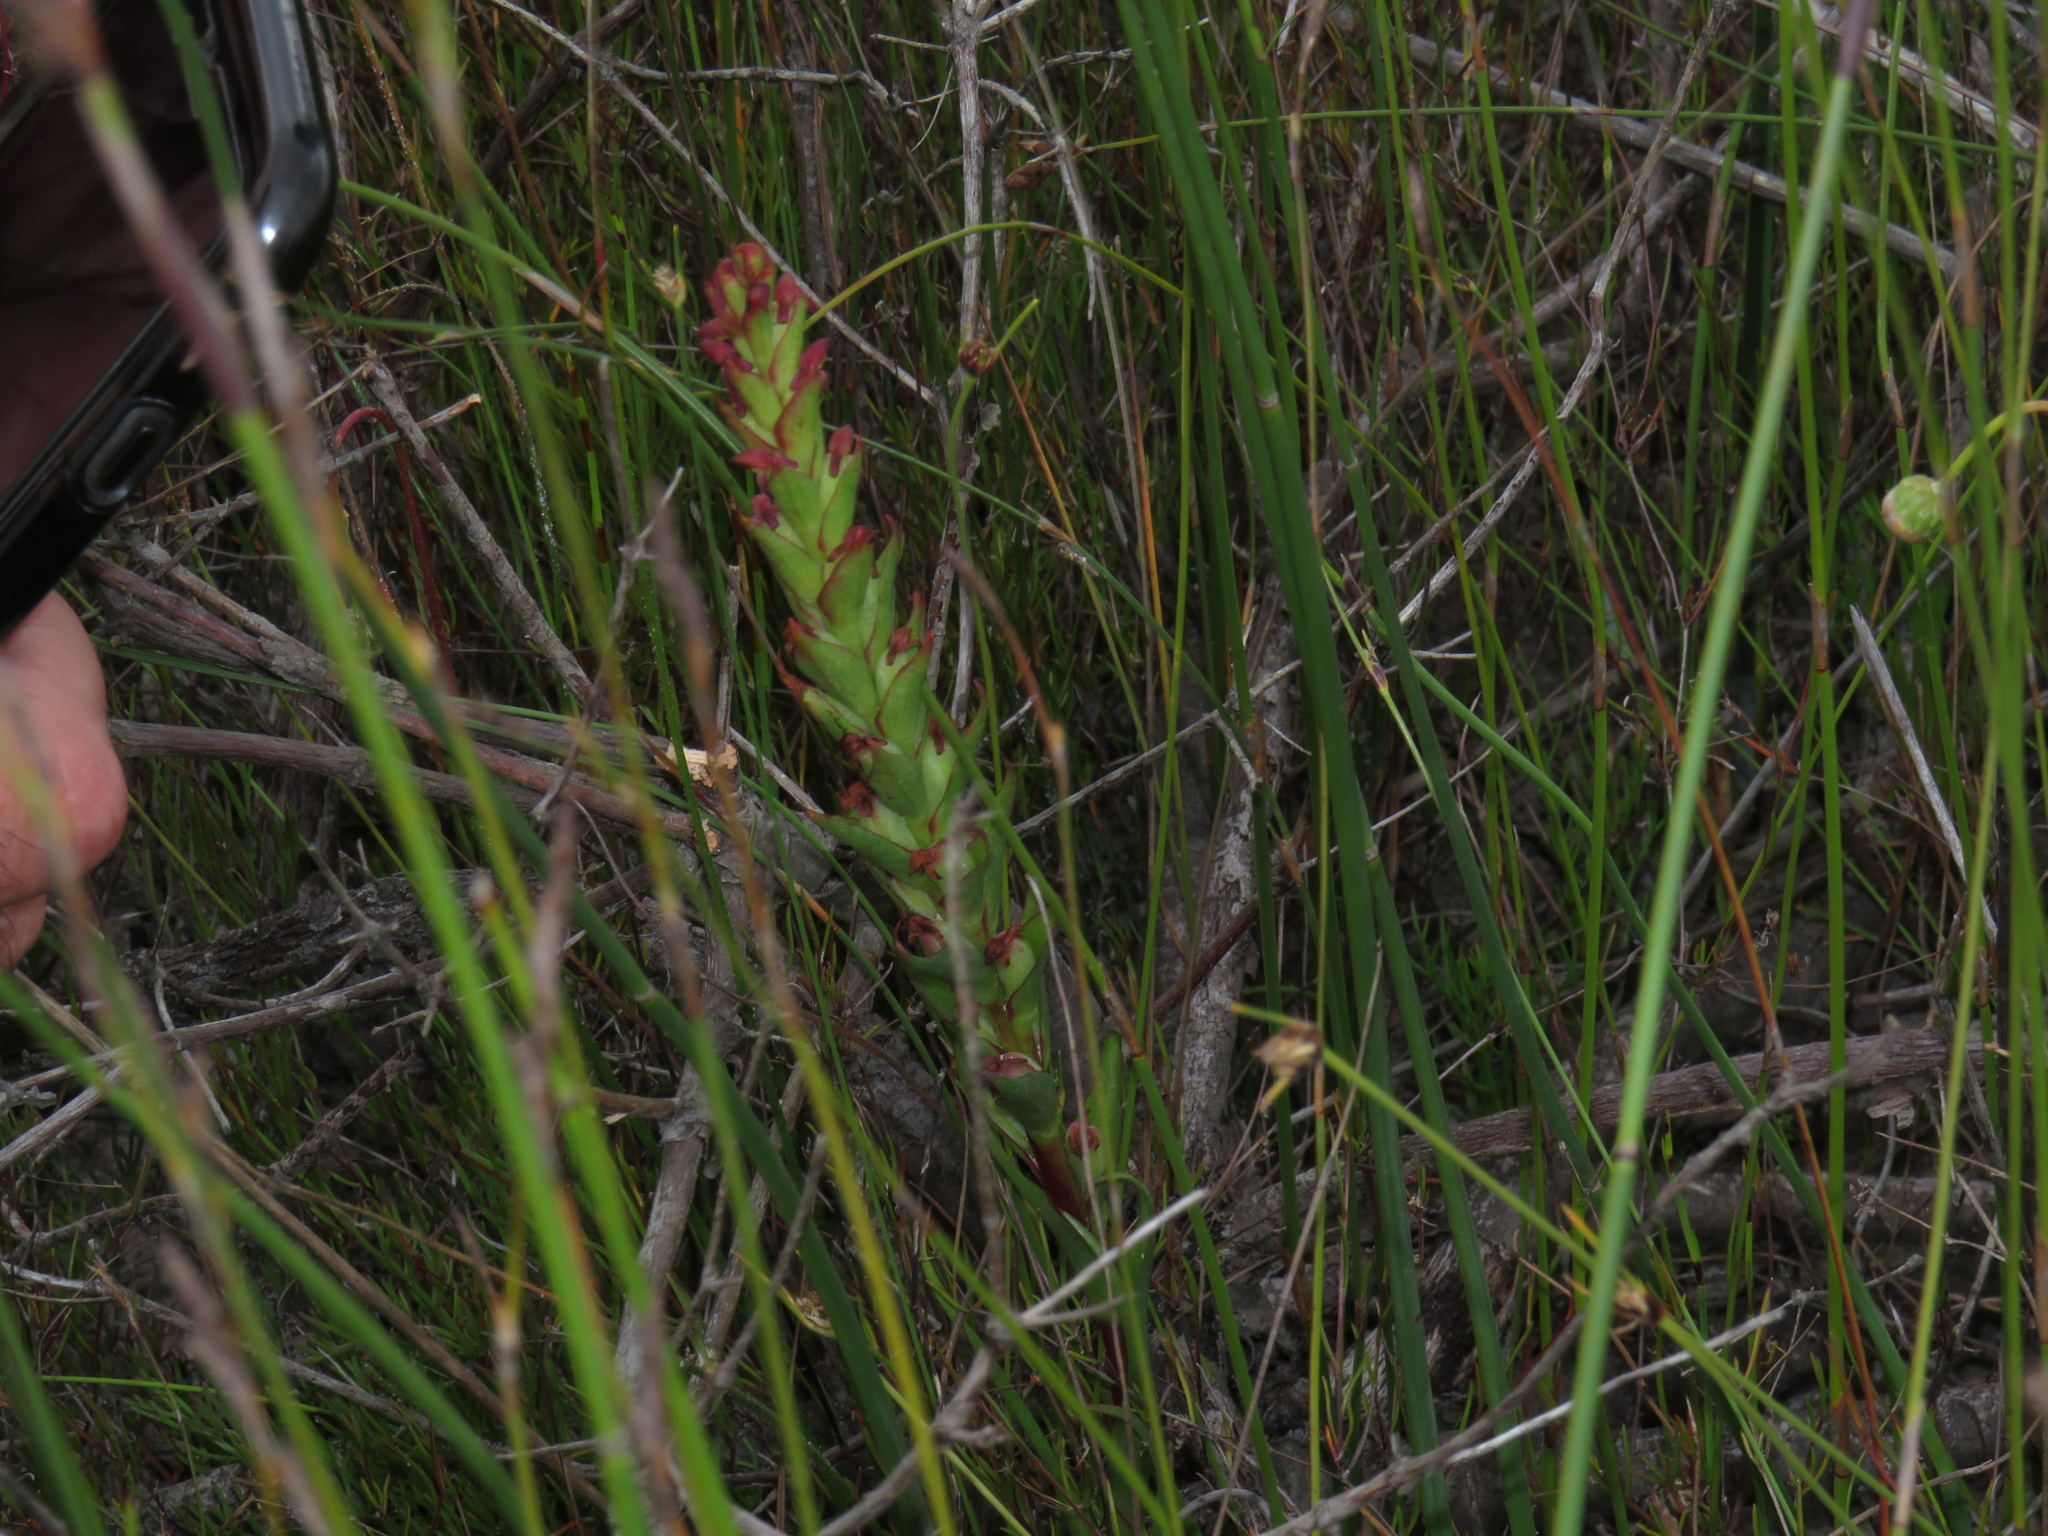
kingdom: Plantae
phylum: Tracheophyta
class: Liliopsida
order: Asparagales
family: Orchidaceae
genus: Disa
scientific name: Disa bracteata
